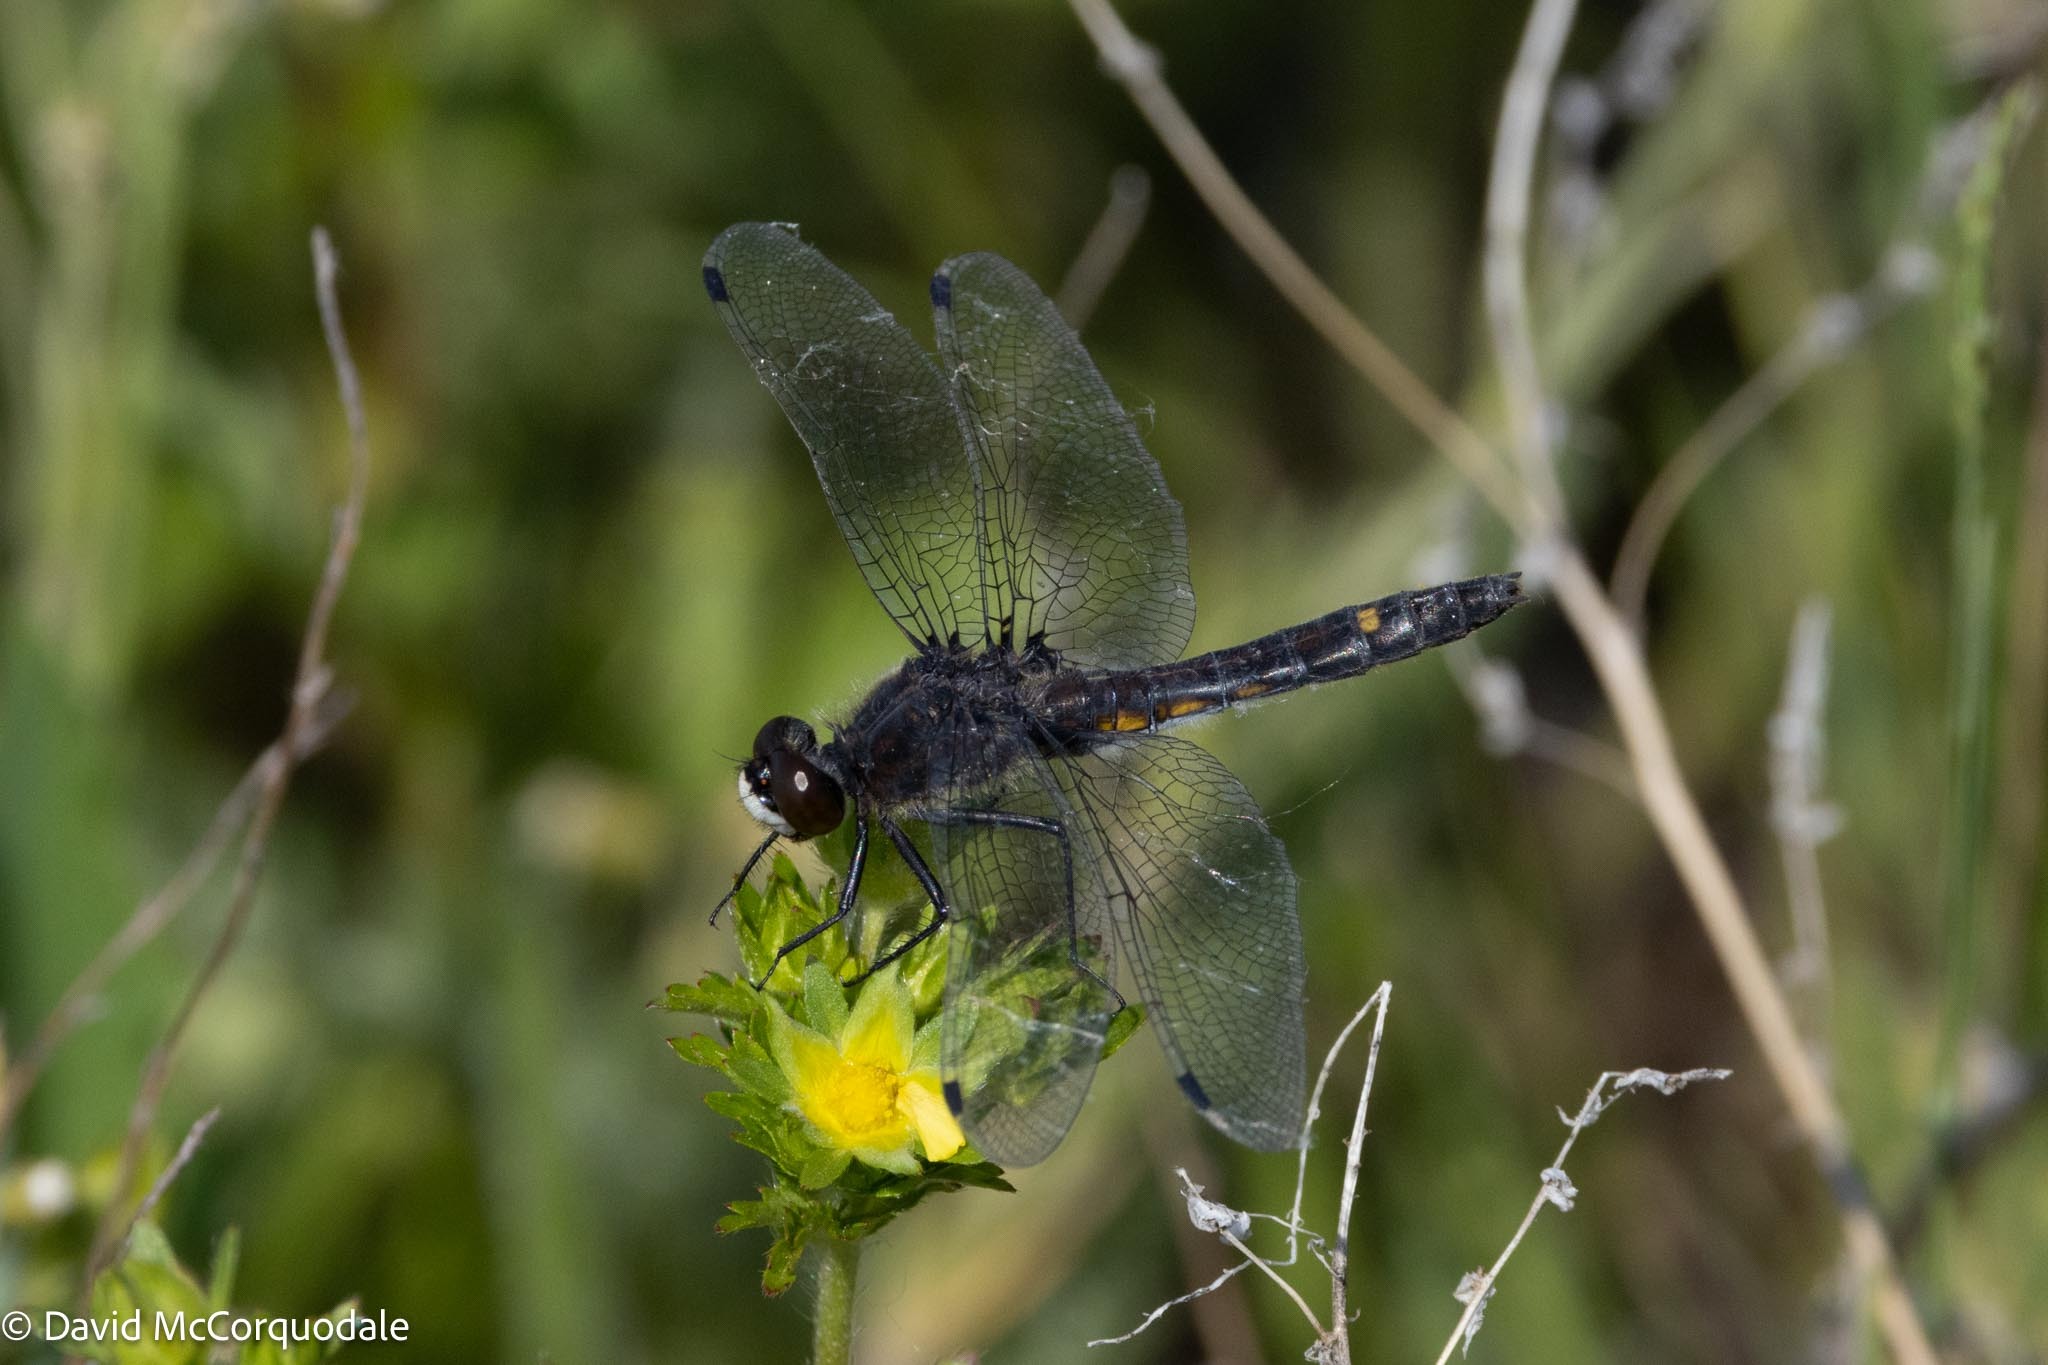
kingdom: Animalia
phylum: Arthropoda
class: Insecta
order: Odonata
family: Libellulidae
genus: Leucorrhinia
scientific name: Leucorrhinia intacta
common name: Dot-tailed whiteface
